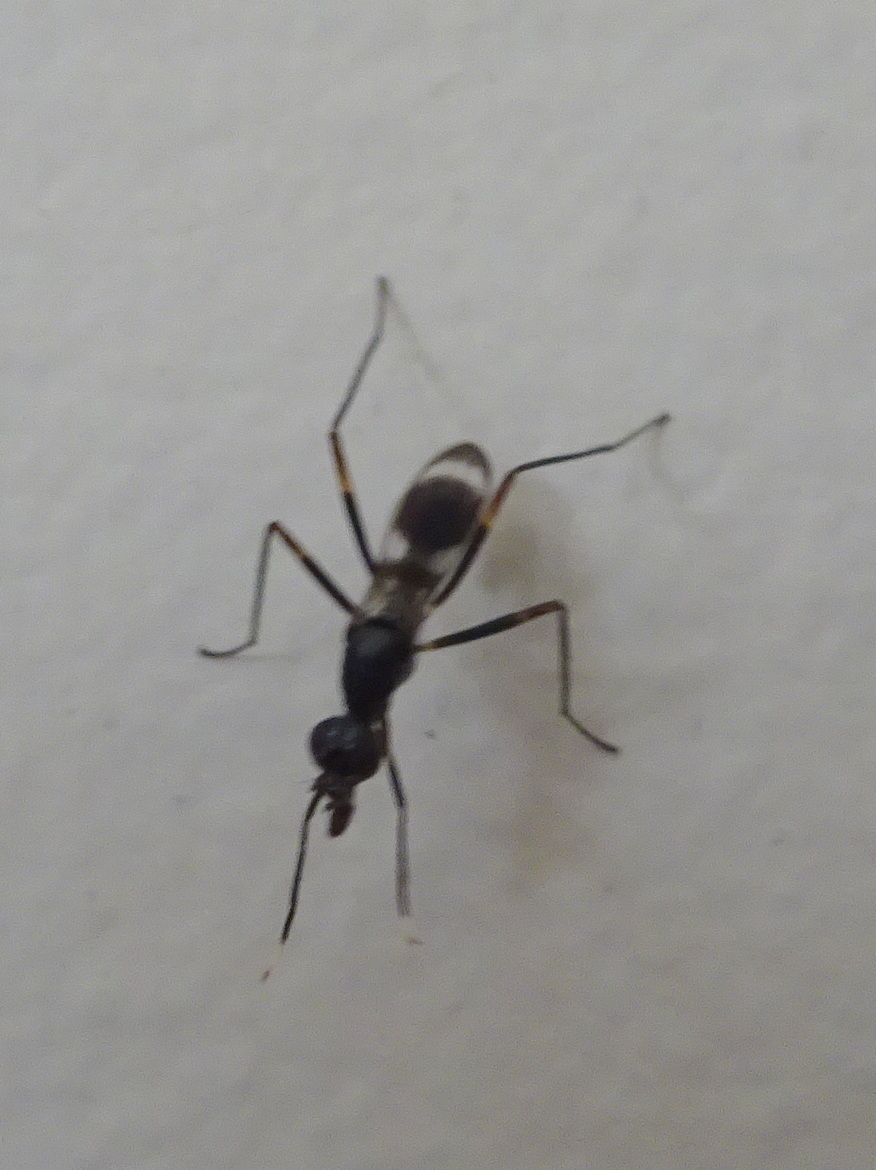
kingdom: Animalia
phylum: Arthropoda
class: Insecta
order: Diptera
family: Micropezidae
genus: Taeniaptera
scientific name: Taeniaptera trivittata
